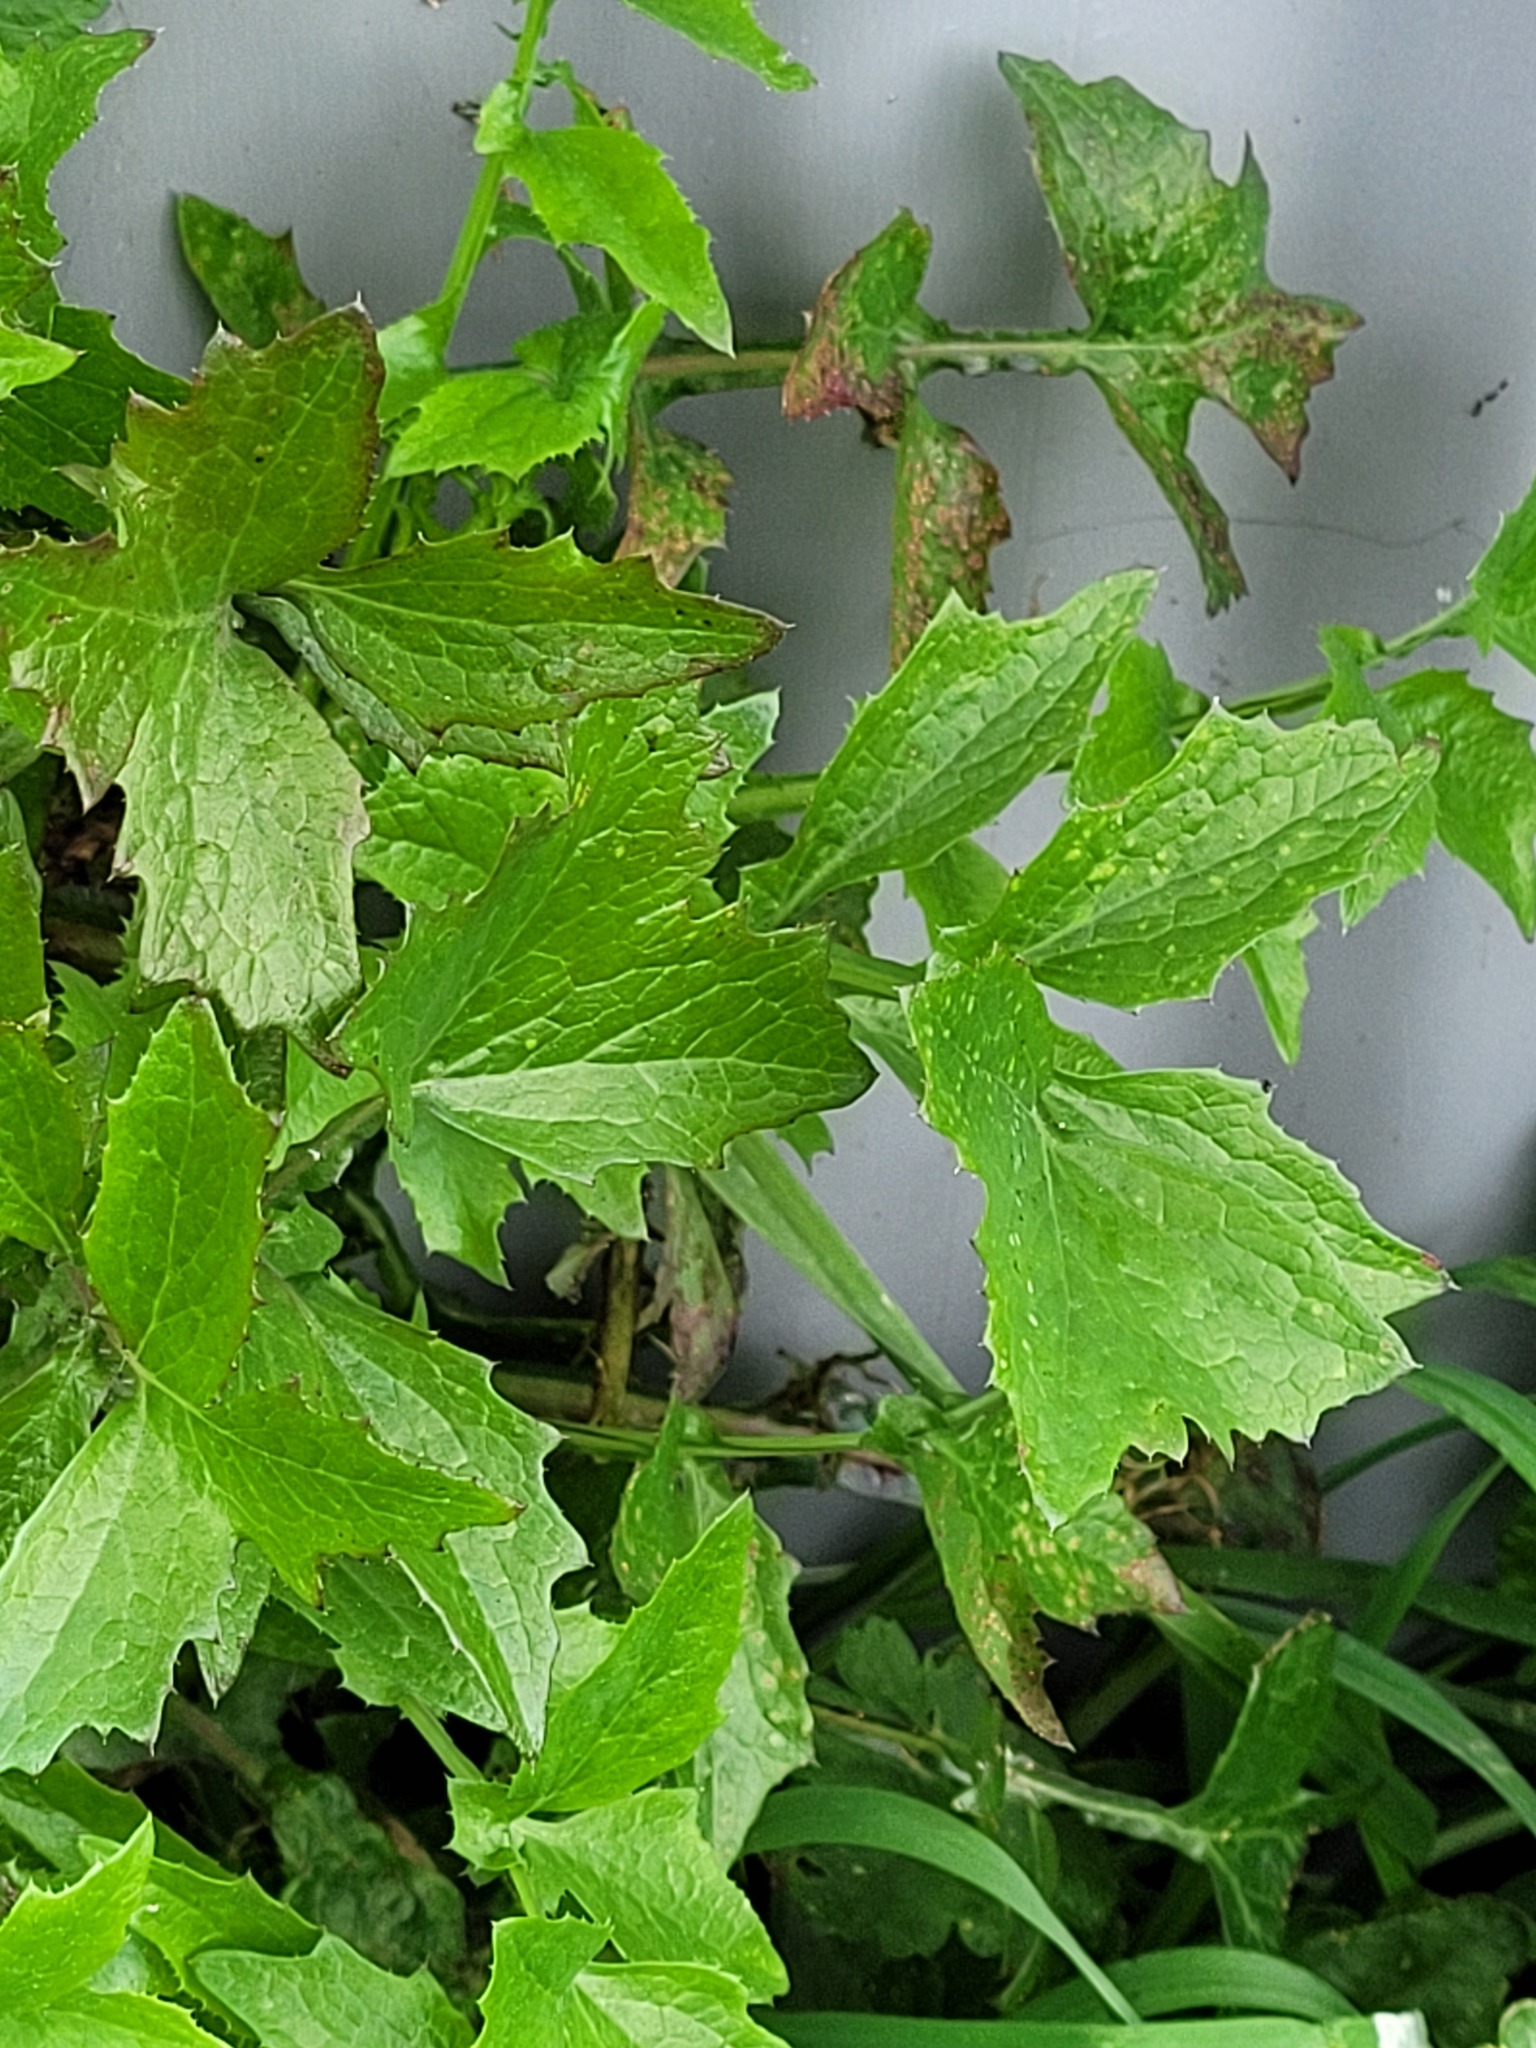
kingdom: Plantae
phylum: Tracheophyta
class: Magnoliopsida
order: Brassicales
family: Brassicaceae
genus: Sisymbrium
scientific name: Sisymbrium officinale
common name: Hedge mustard
